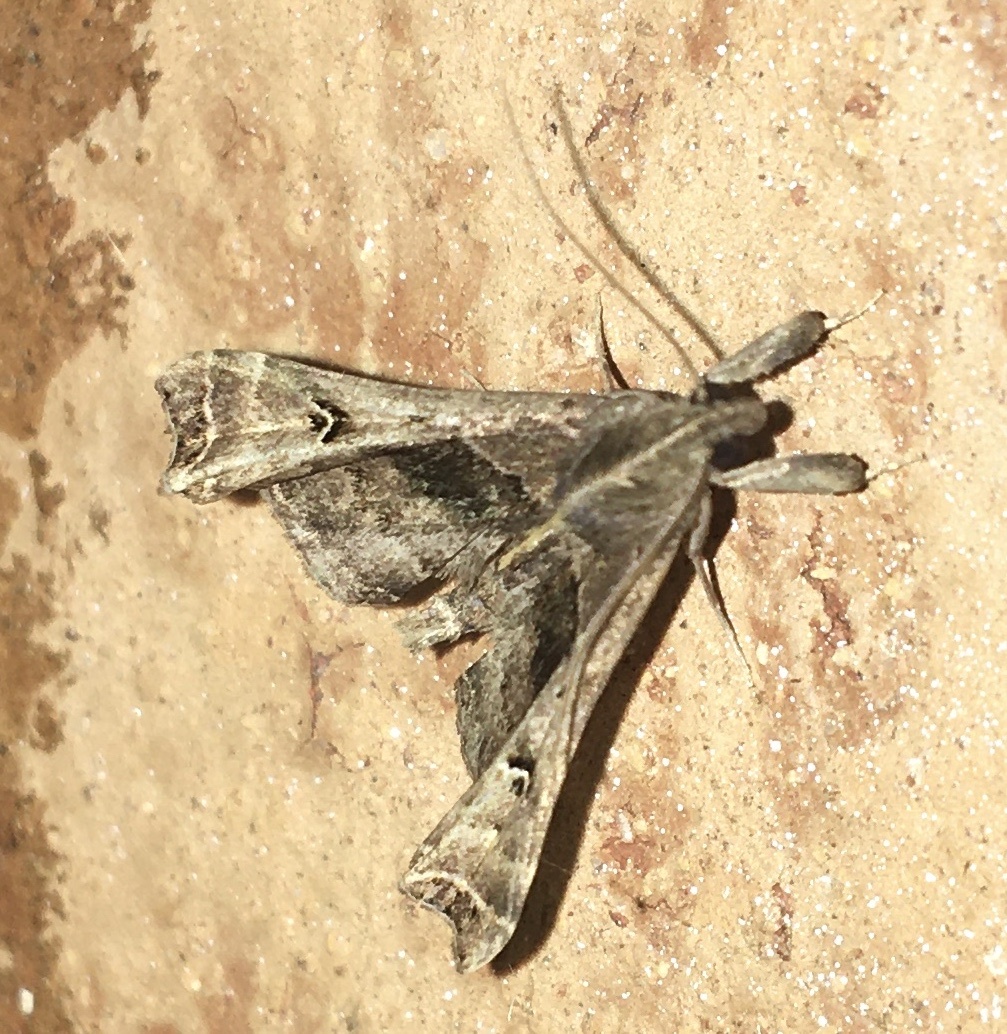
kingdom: Animalia
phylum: Arthropoda
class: Insecta
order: Lepidoptera
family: Erebidae
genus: Palthis
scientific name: Palthis asopialis
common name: Faint-spotted palthis moth
